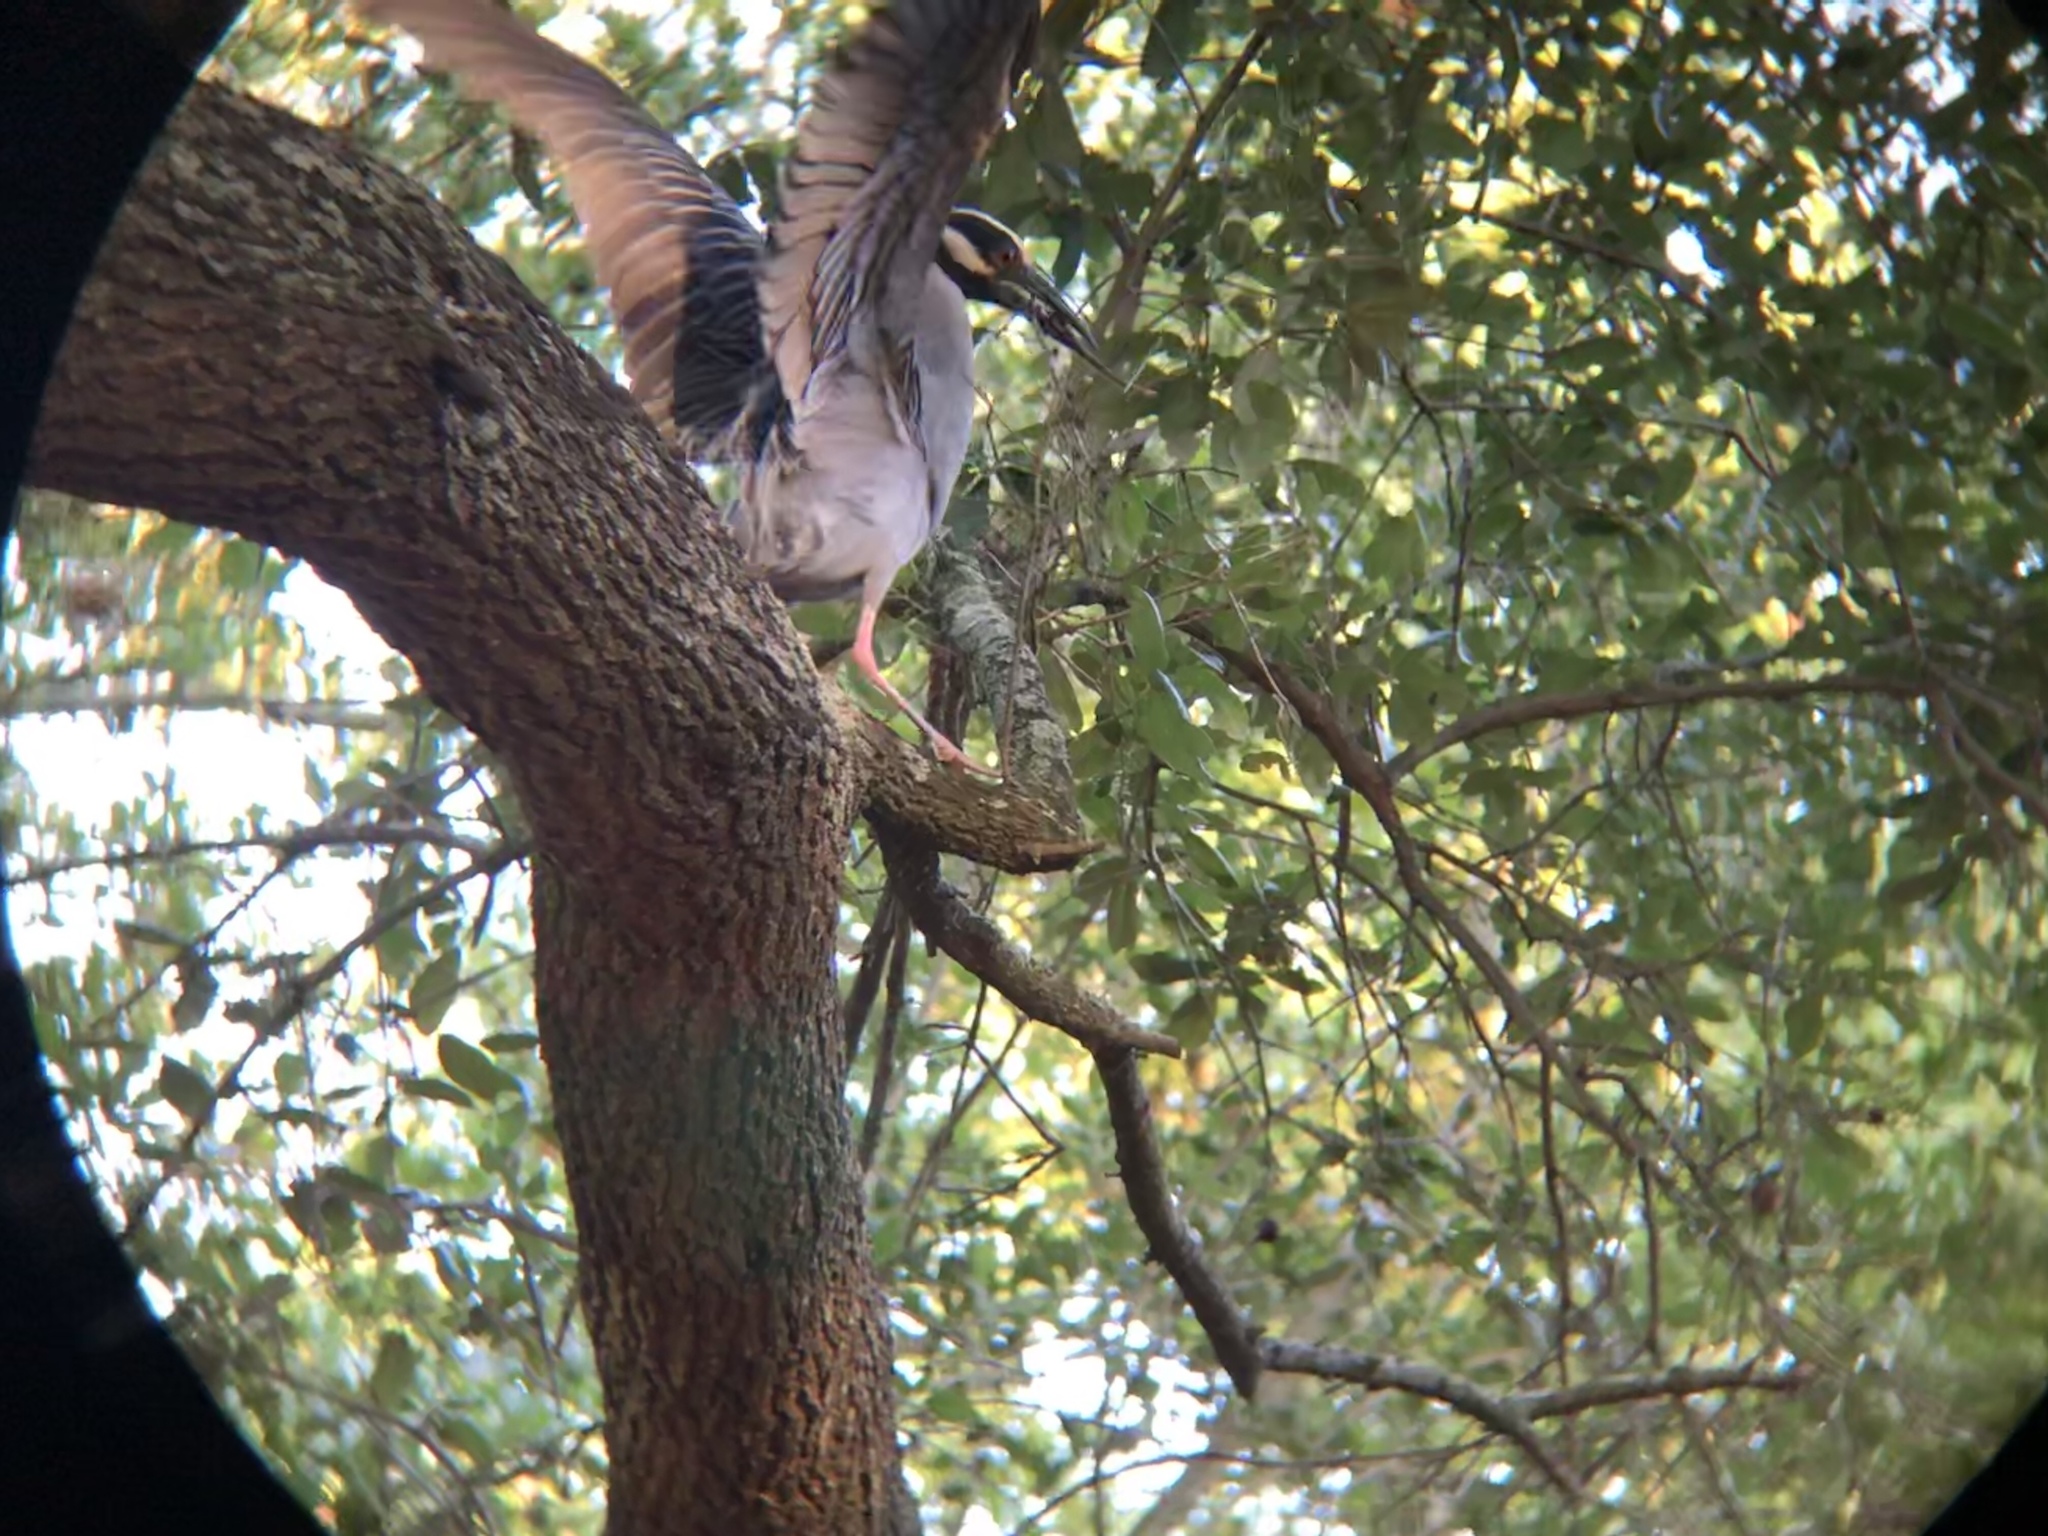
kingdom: Animalia
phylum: Chordata
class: Aves
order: Pelecaniformes
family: Ardeidae
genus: Nyctanassa
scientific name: Nyctanassa violacea
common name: Yellow-crowned night heron
